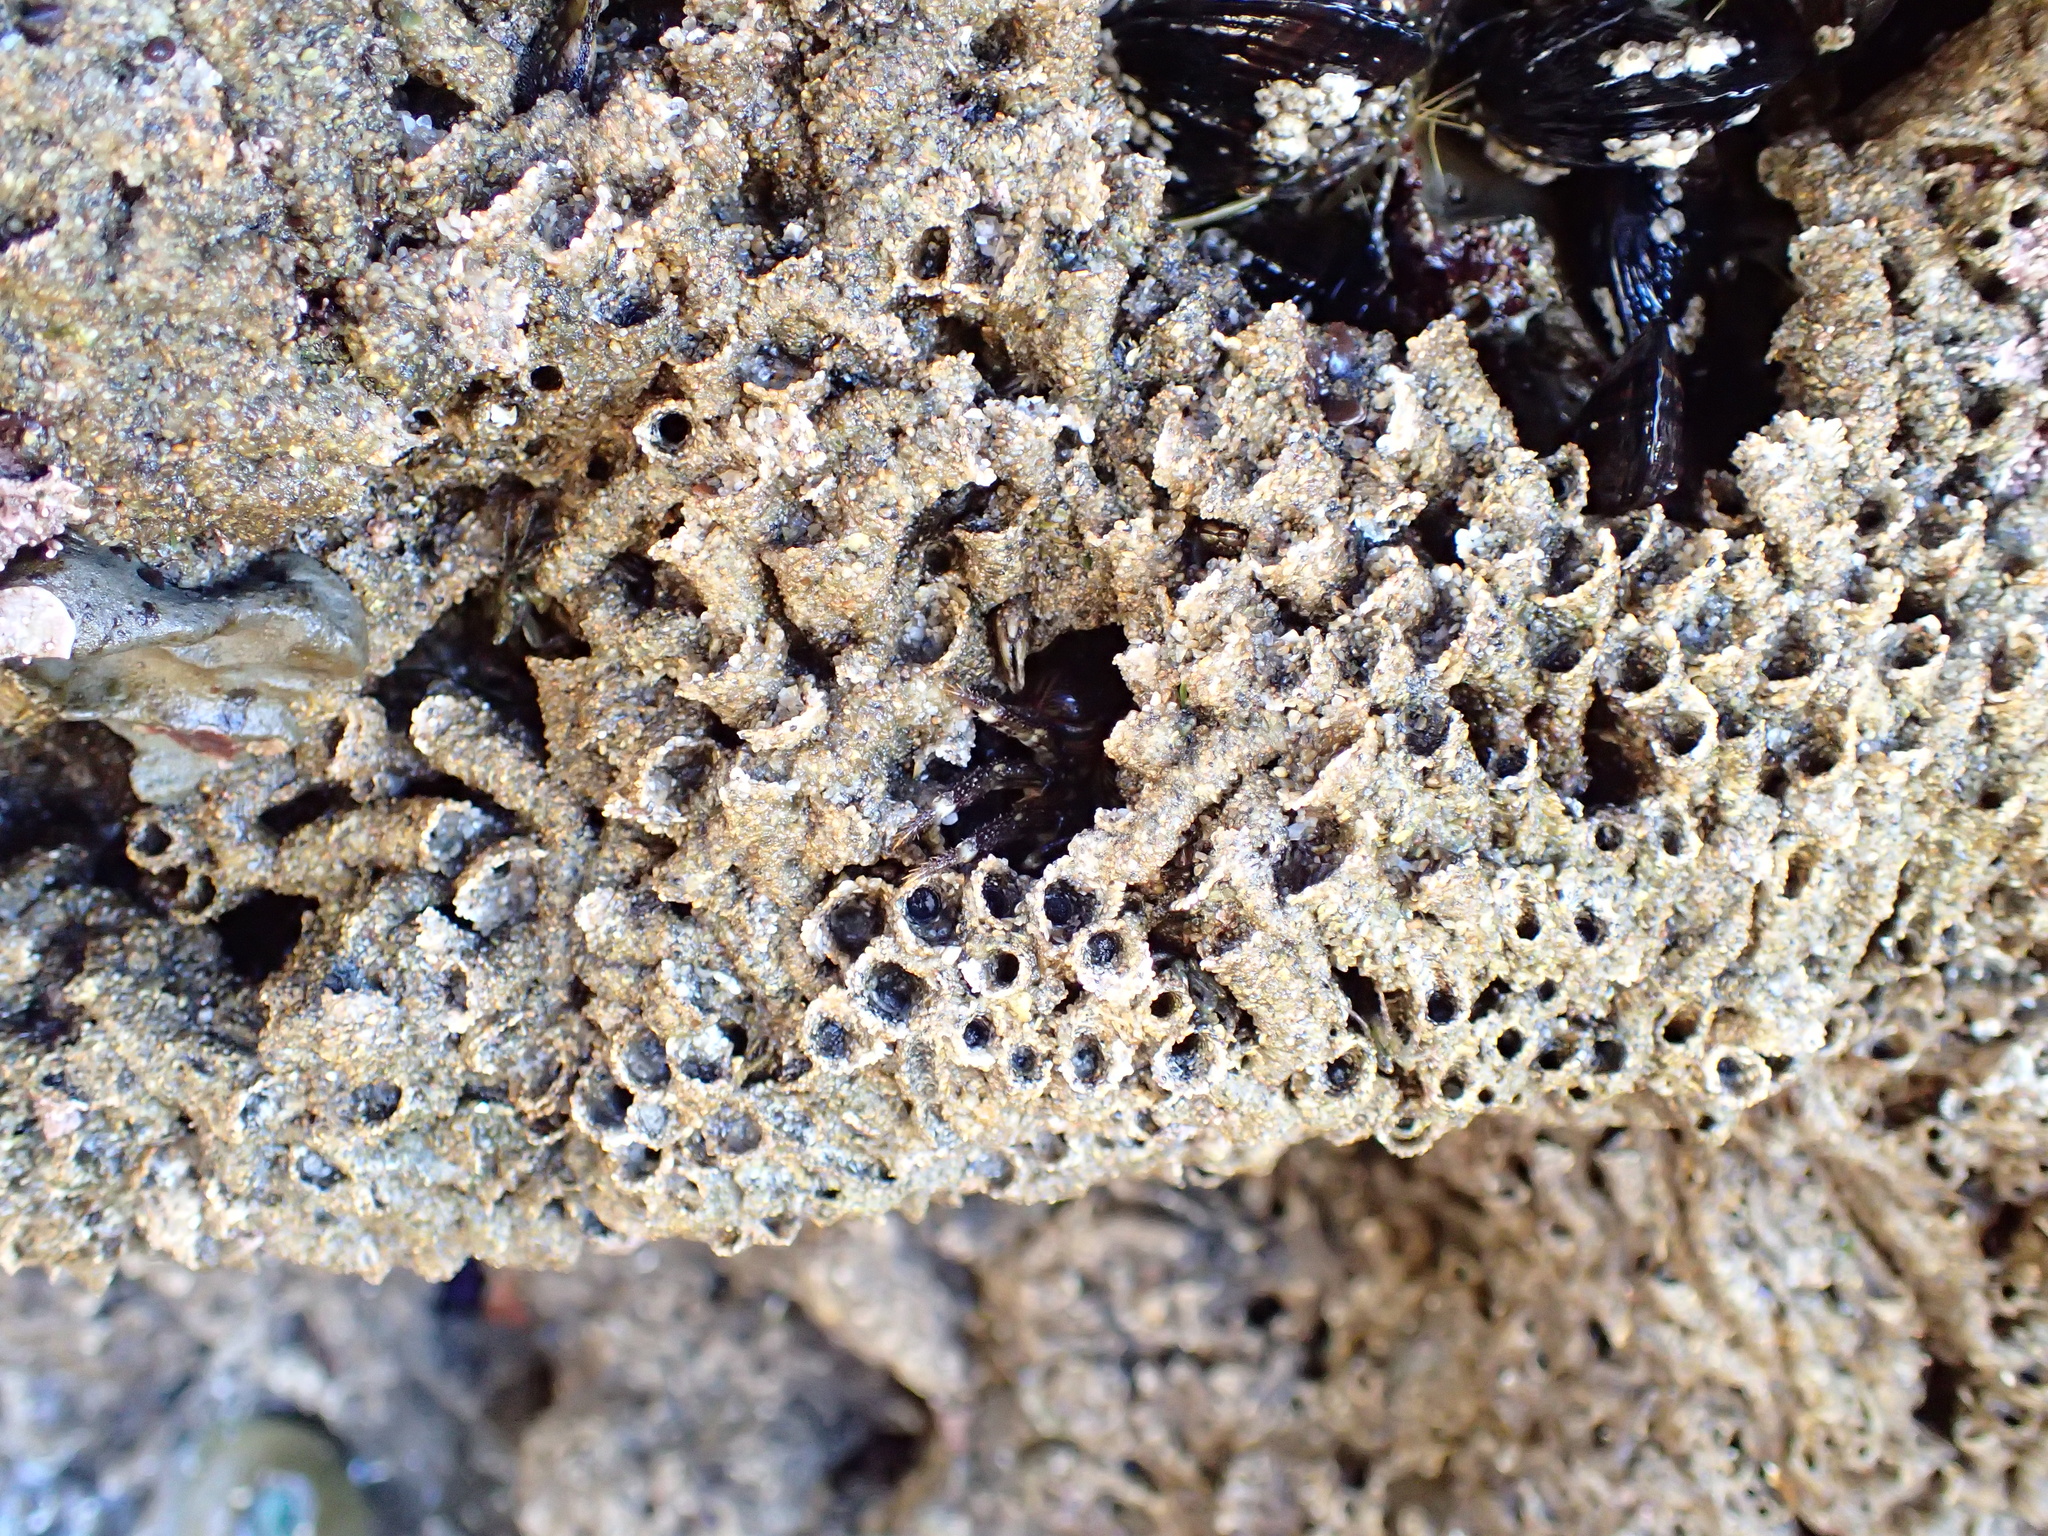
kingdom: Animalia
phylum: Annelida
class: Polychaeta
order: Sabellida
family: Sabellariidae
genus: Phragmatopoma
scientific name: Phragmatopoma californica
